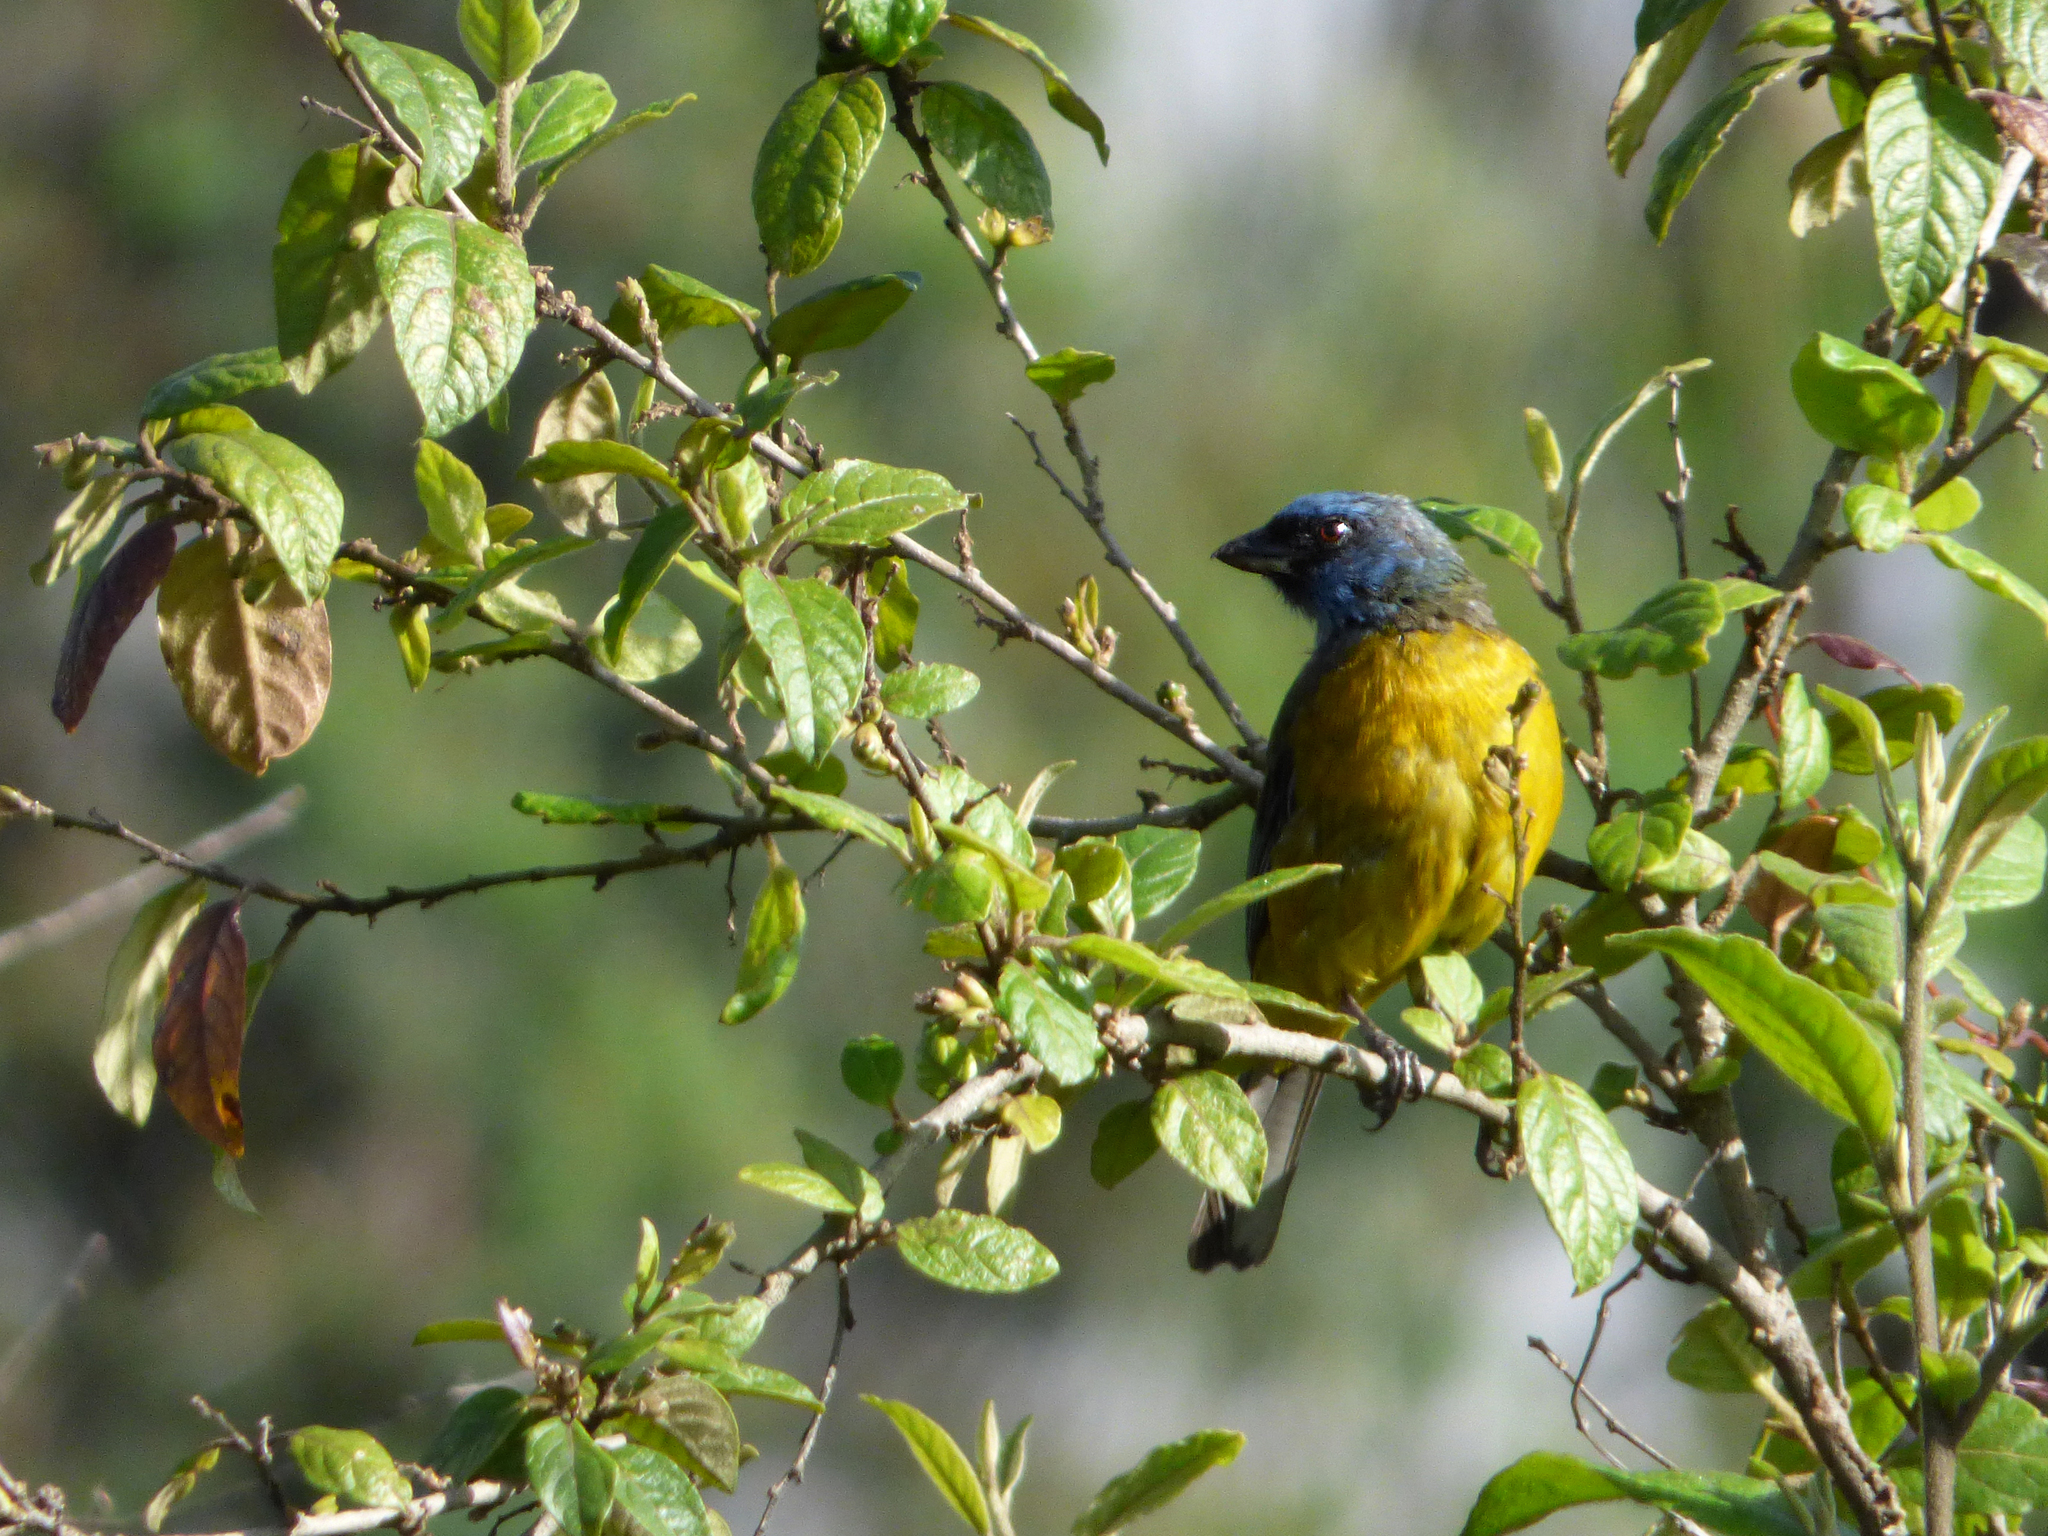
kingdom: Animalia
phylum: Chordata
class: Aves
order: Passeriformes
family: Thraupidae
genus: Rauenia
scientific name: Rauenia bonariensis
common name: Blue-and-yellow tanager
